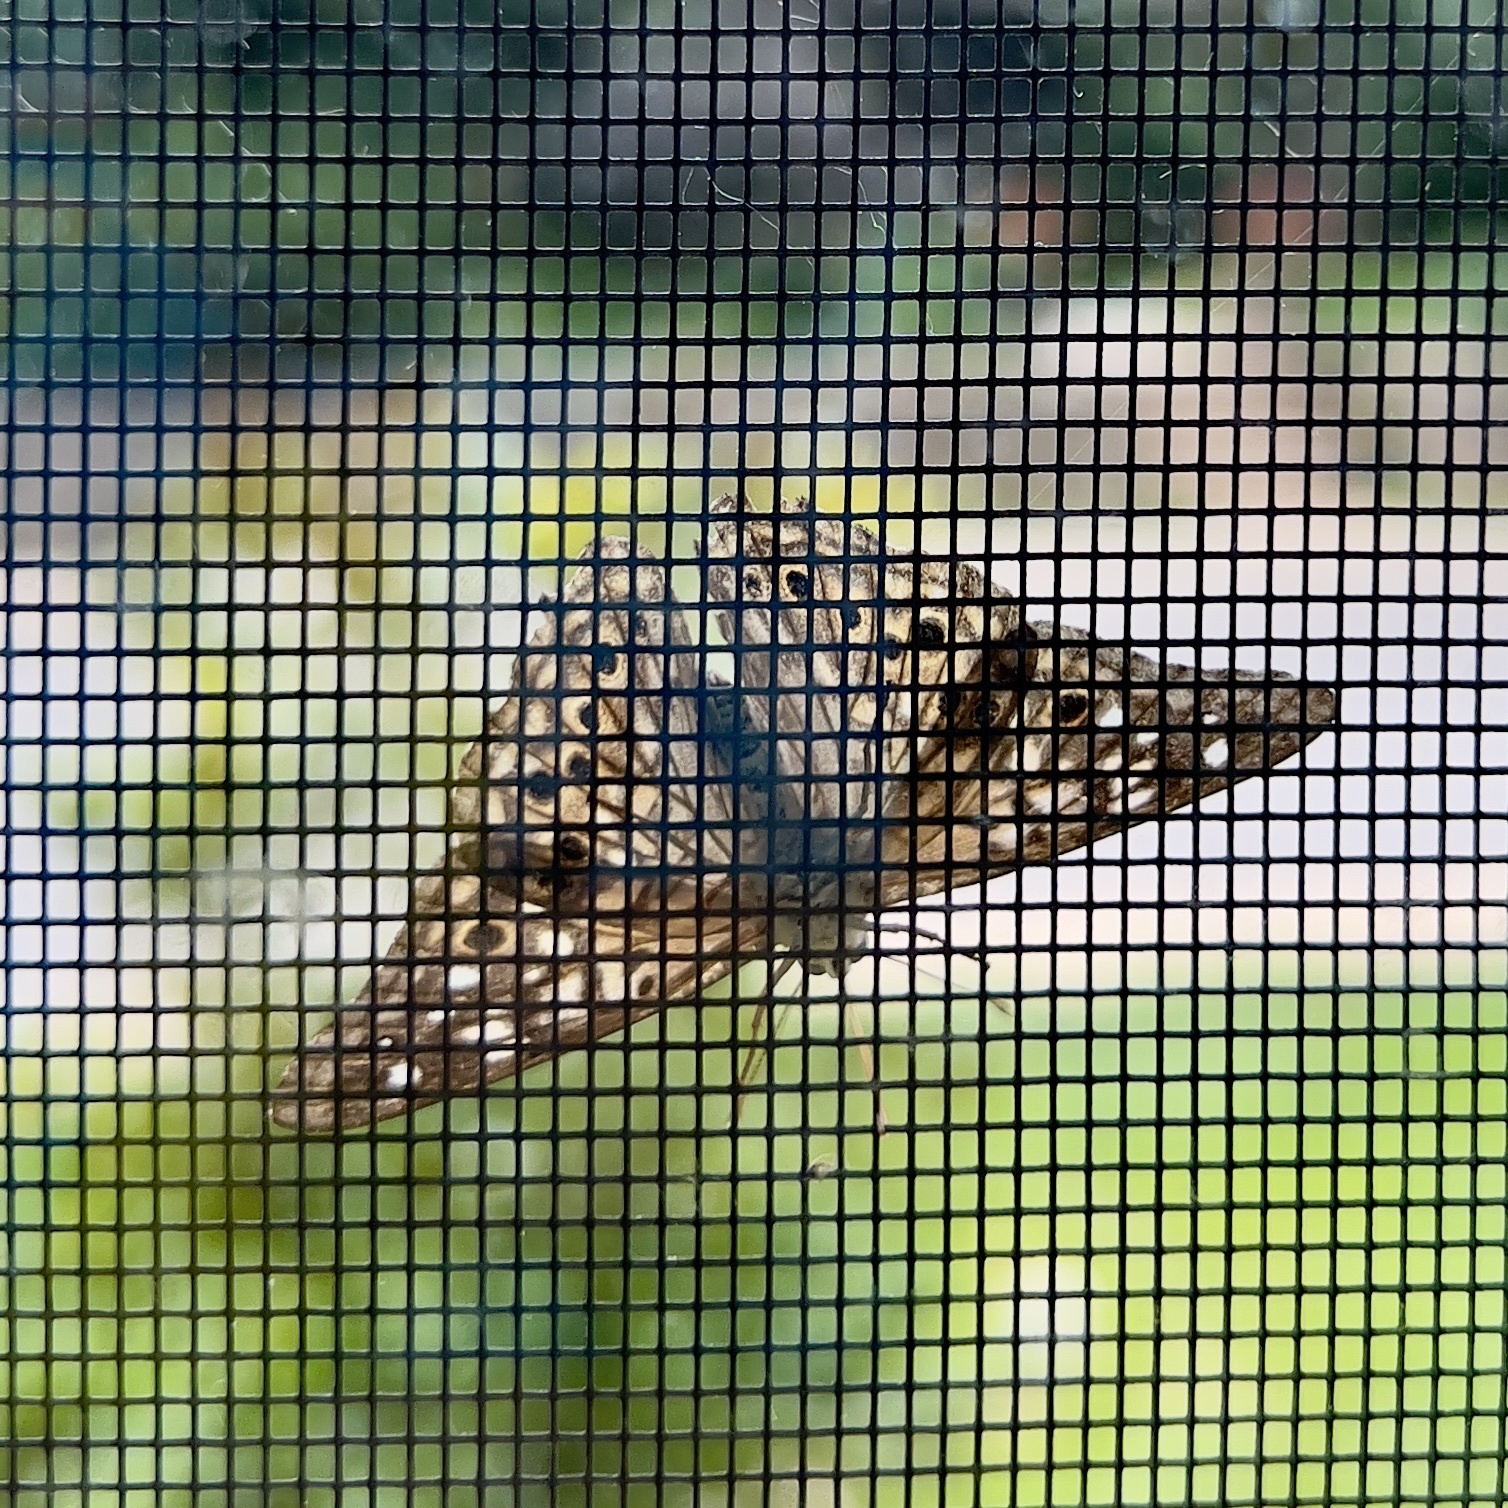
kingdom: Animalia
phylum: Arthropoda
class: Insecta
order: Lepidoptera
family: Nymphalidae
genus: Asterocampa
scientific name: Asterocampa celtis
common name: Hackberry emperor
